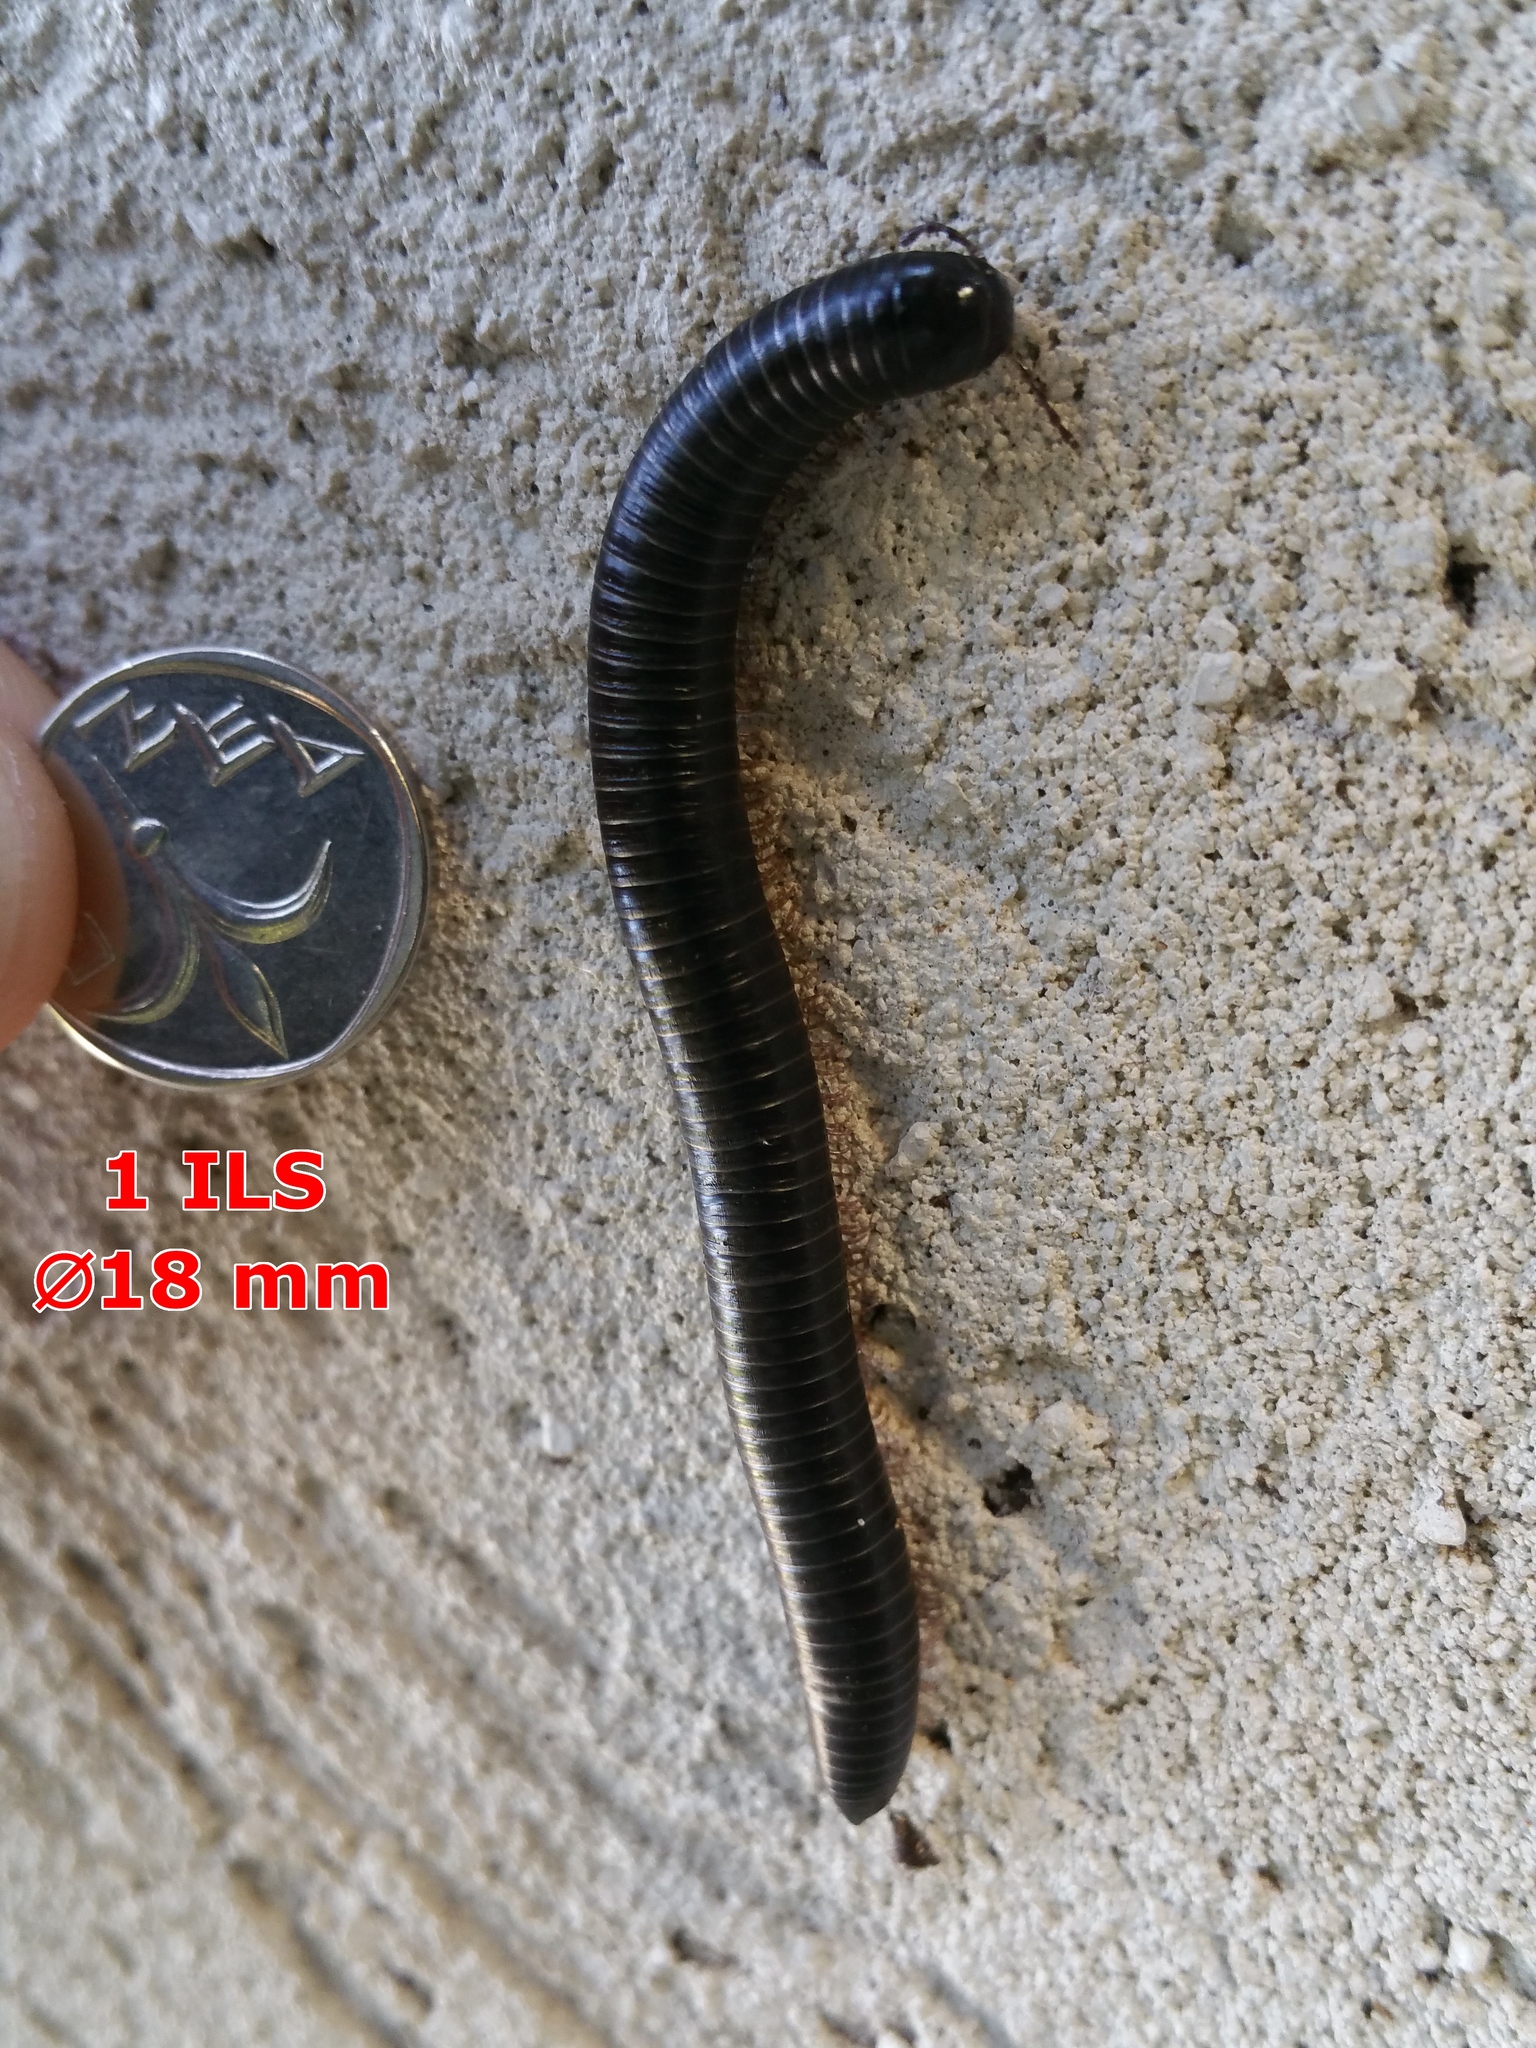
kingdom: Animalia
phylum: Arthropoda
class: Diplopoda
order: Spirostreptida
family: Spirostreptidae
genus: Archispirostreptus
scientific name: Archispirostreptus syriacus
